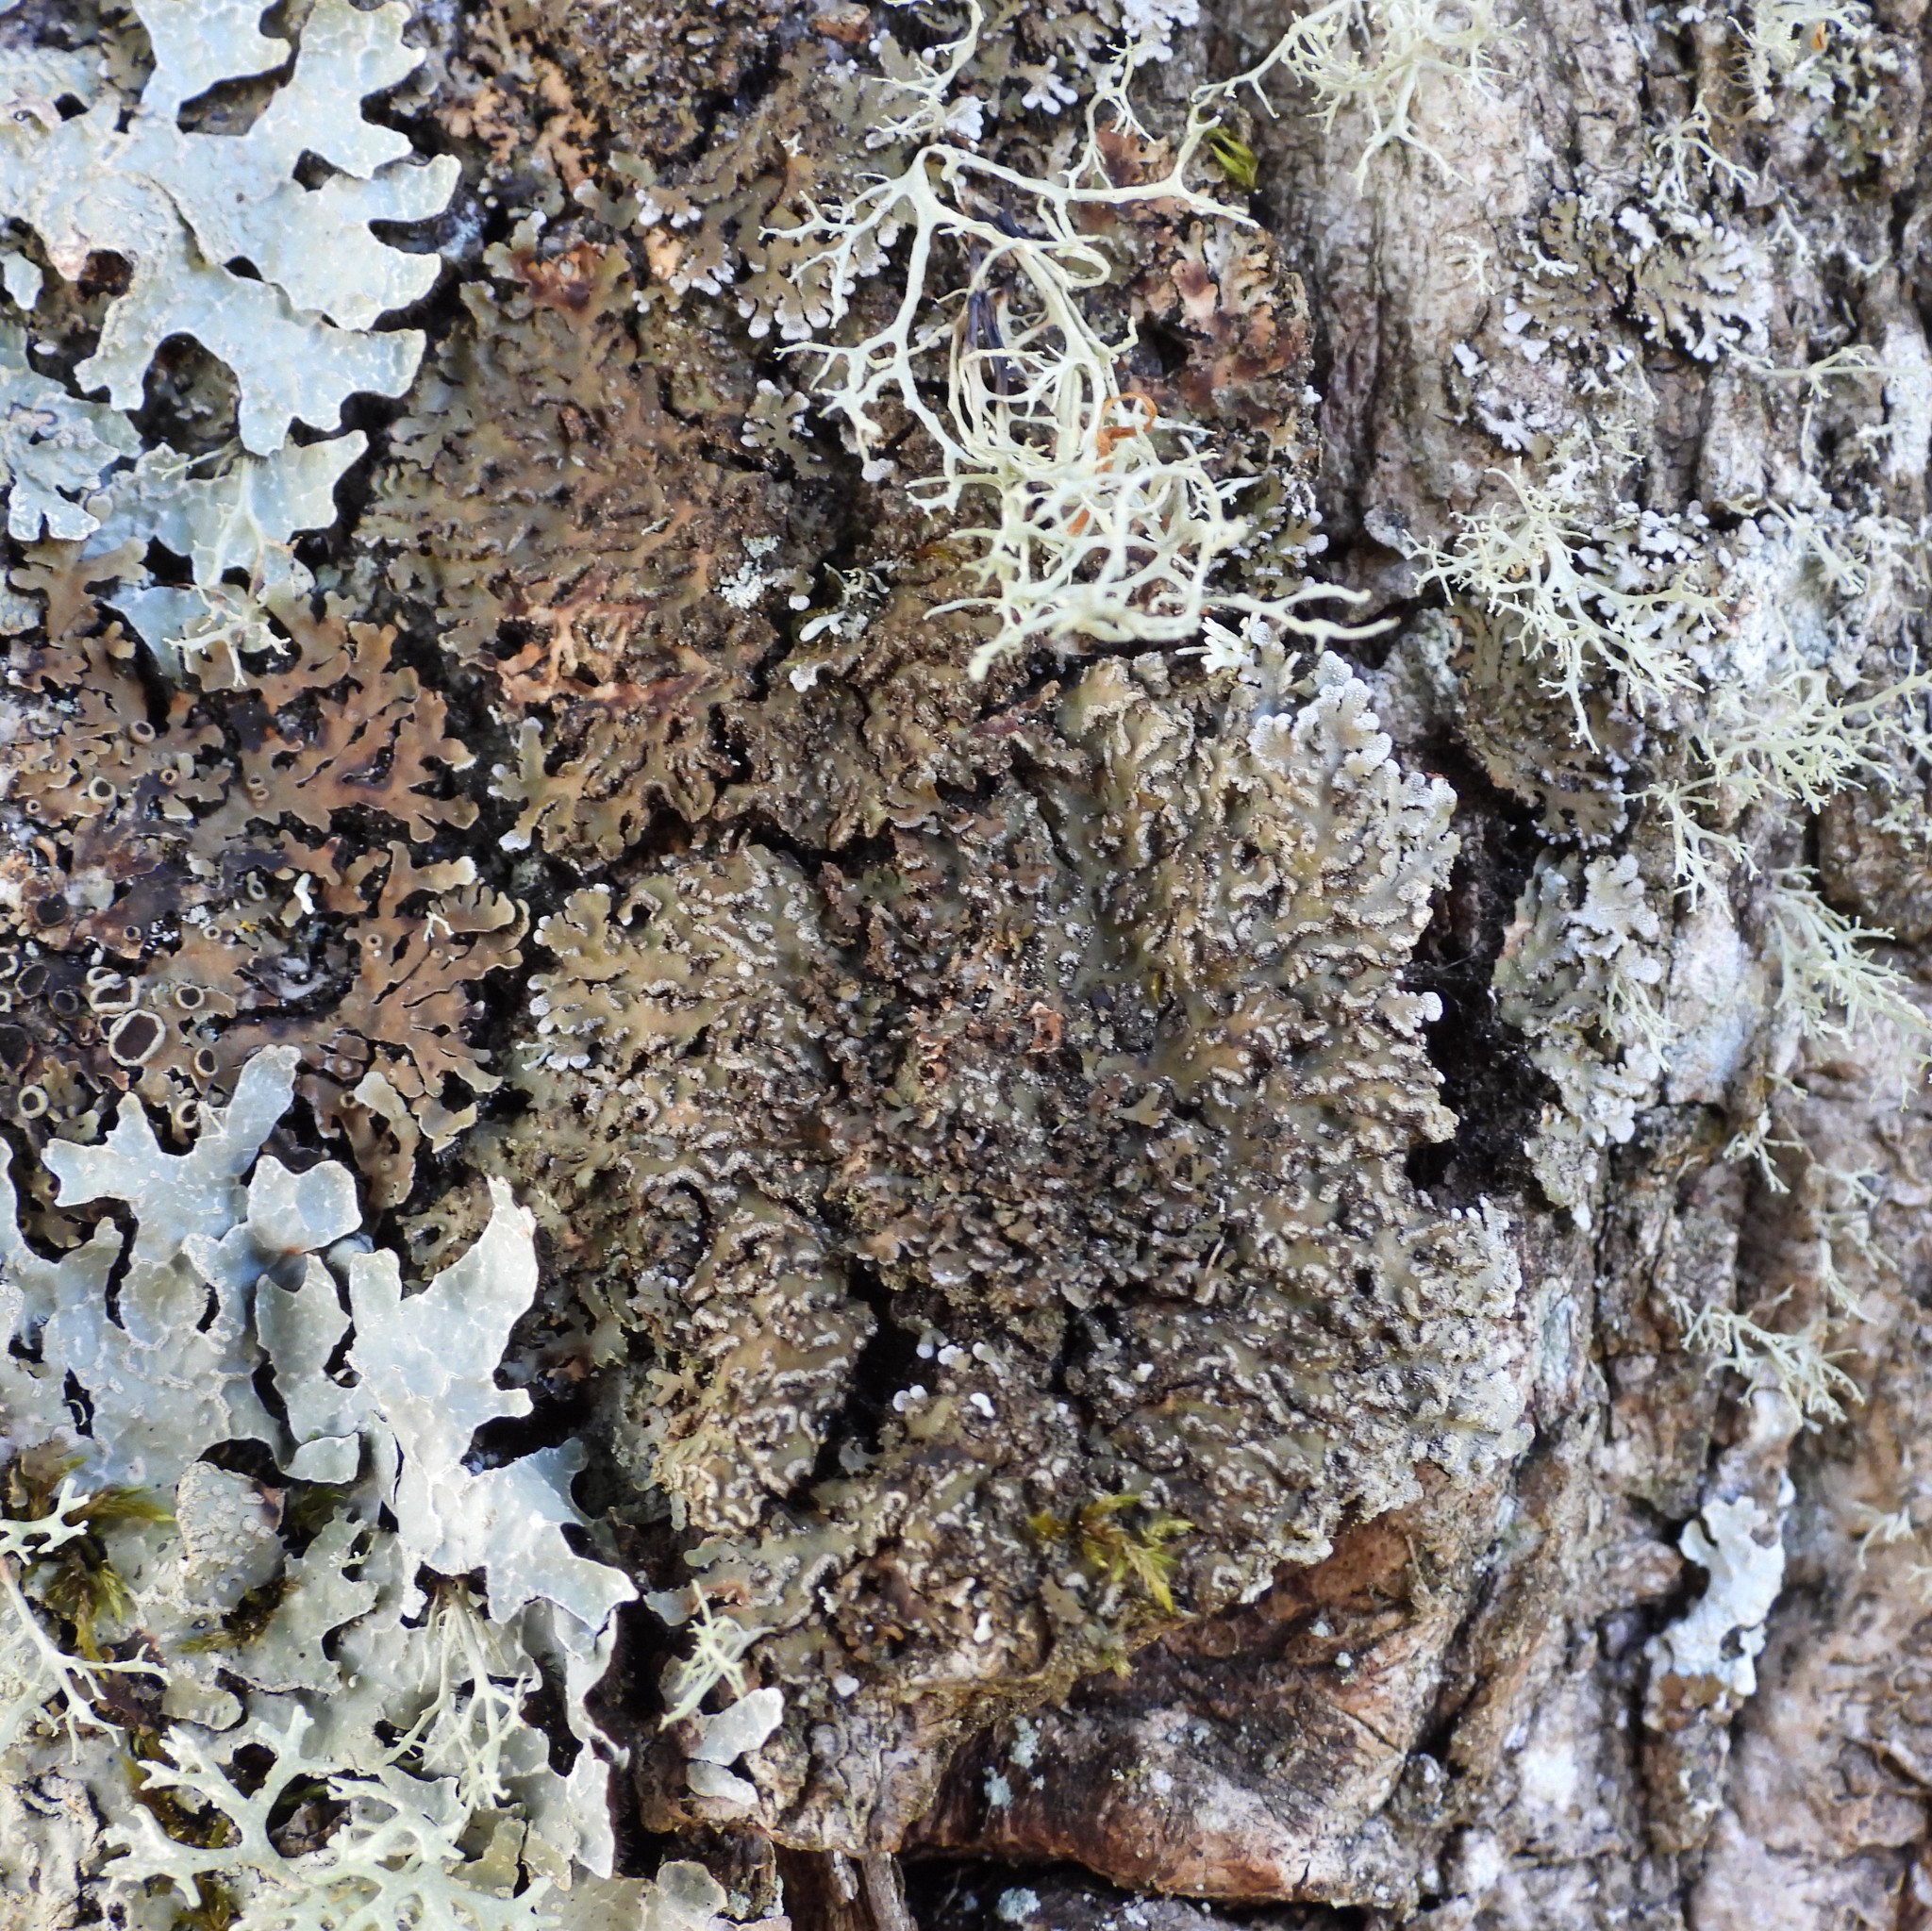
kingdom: Fungi
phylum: Ascomycota
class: Lecanoromycetes
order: Caliciales
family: Physciaceae
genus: Physconia
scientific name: Physconia enteroxantha
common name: Yellow-edged frost lichen
